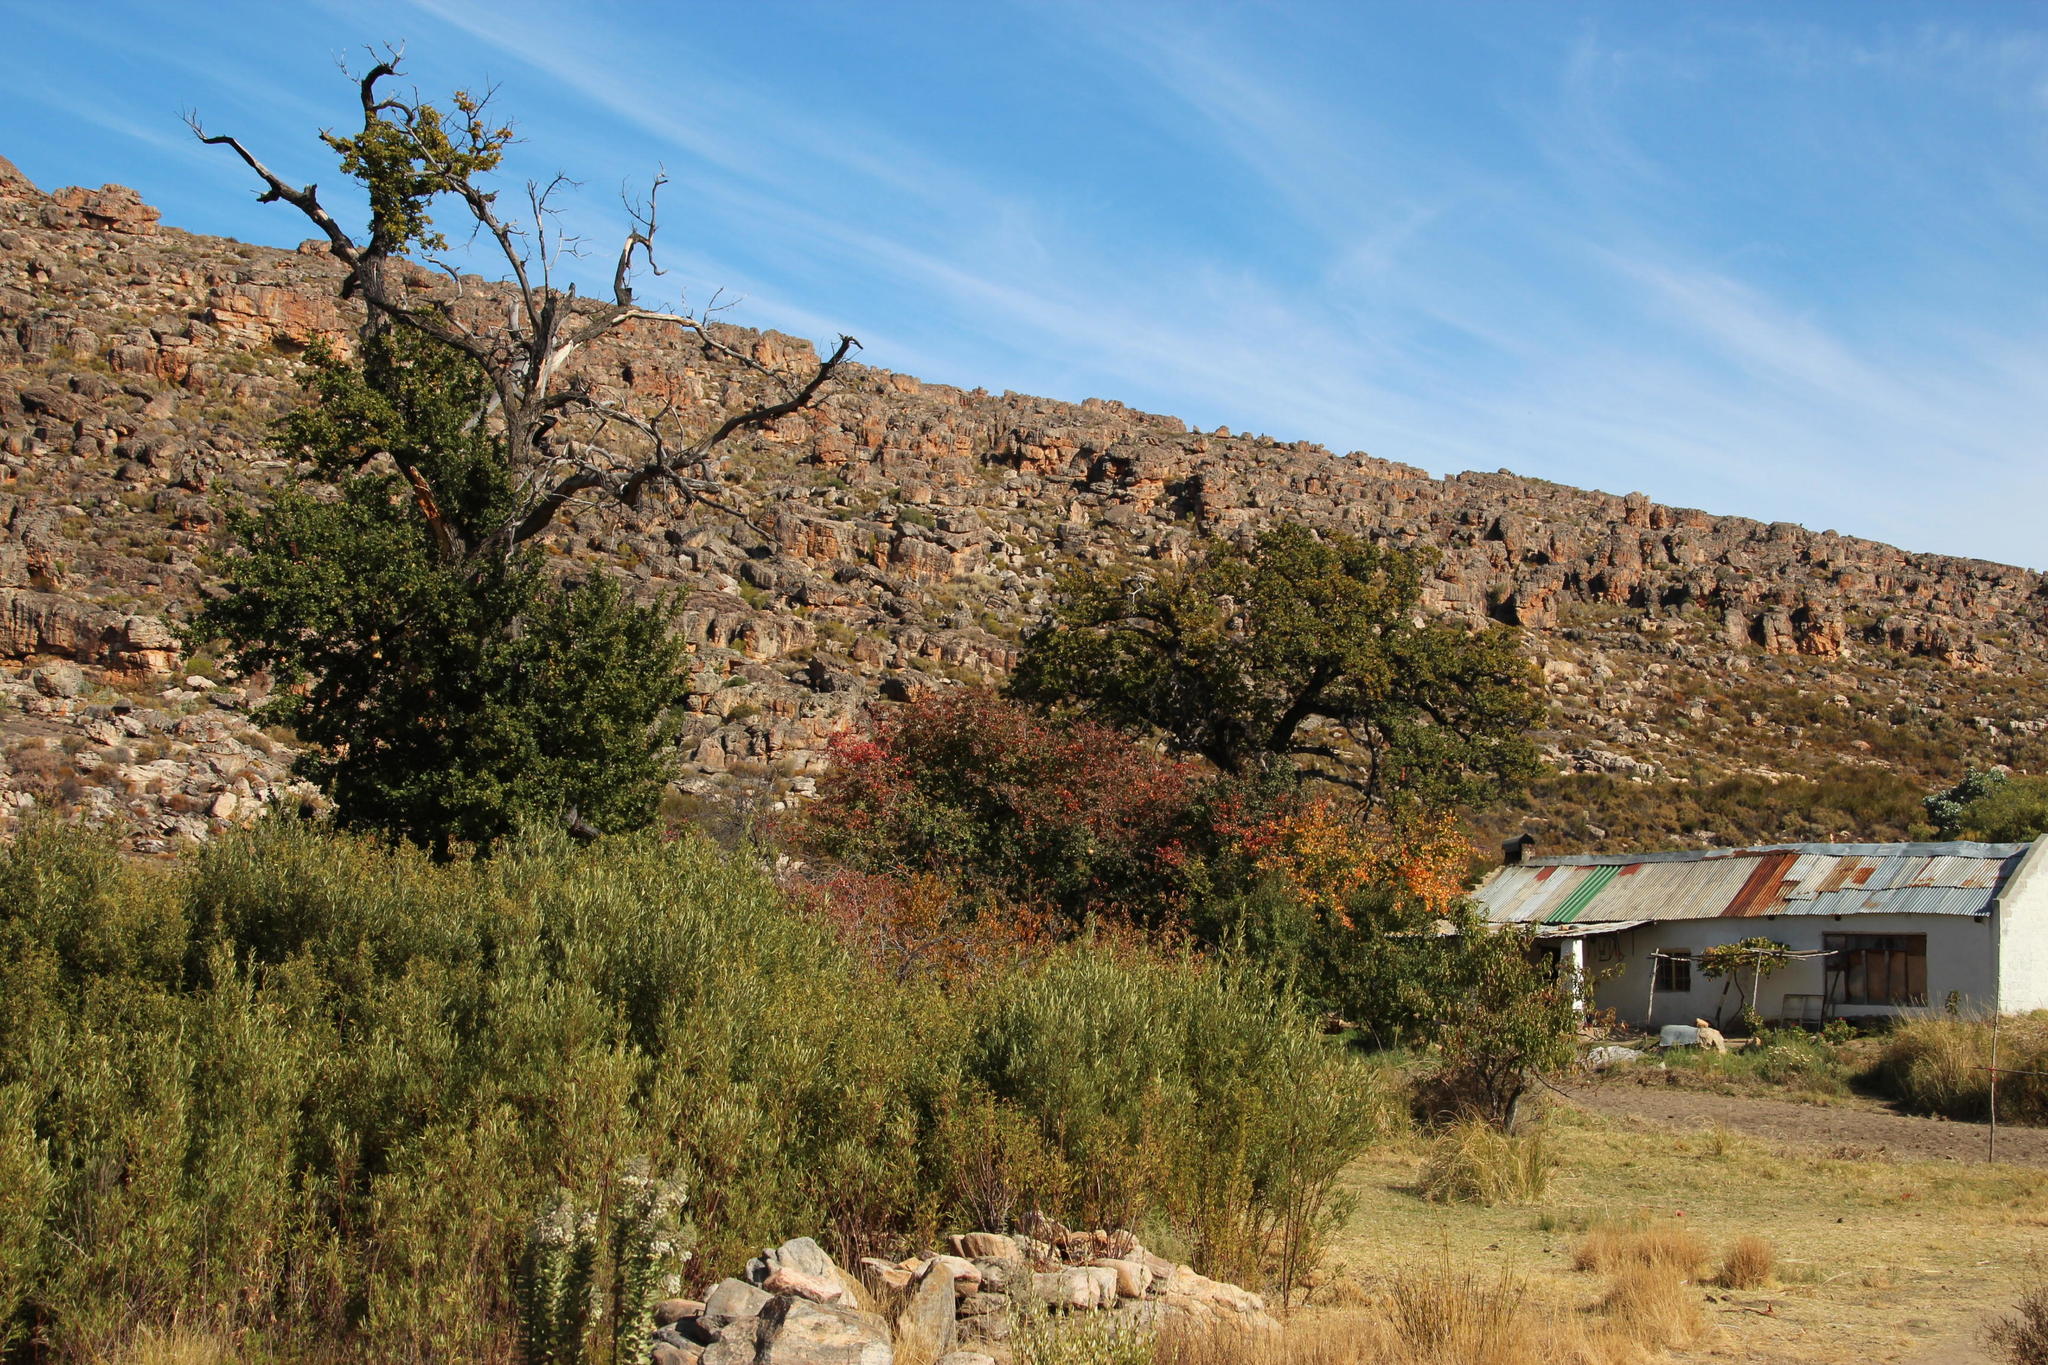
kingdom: Plantae
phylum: Tracheophyta
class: Magnoliopsida
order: Fagales
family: Fagaceae
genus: Quercus
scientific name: Quercus robur
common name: Pedunculate oak
